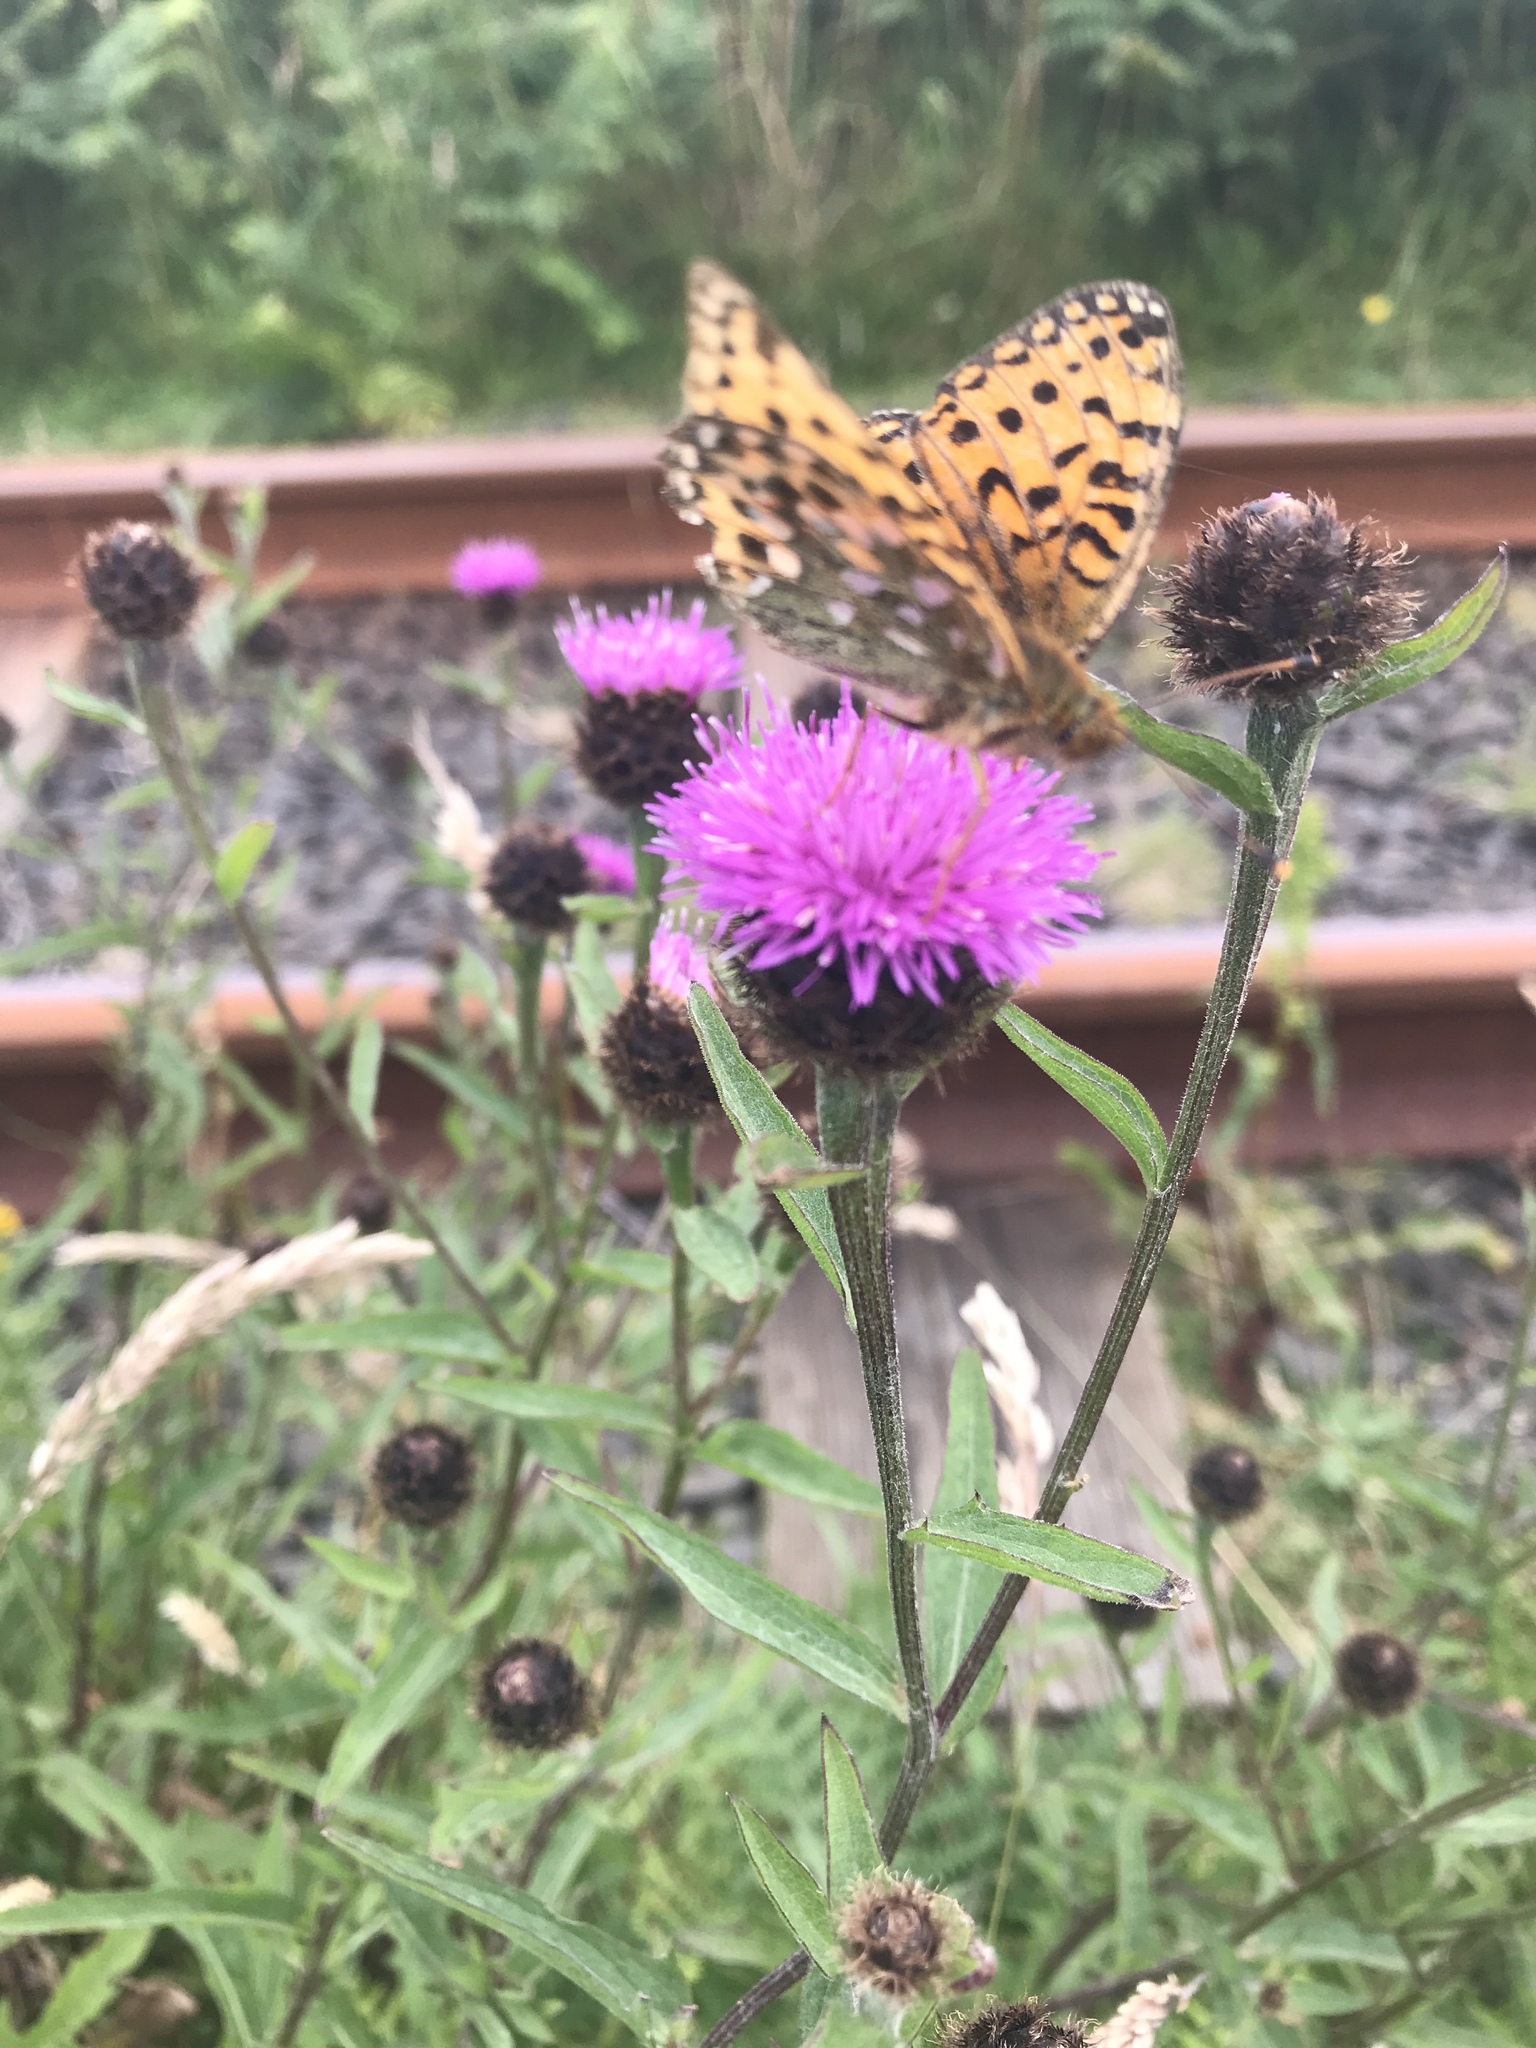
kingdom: Animalia
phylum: Arthropoda
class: Insecta
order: Lepidoptera
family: Nymphalidae
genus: Speyeria
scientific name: Speyeria aglaja
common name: Dark green fritillary
